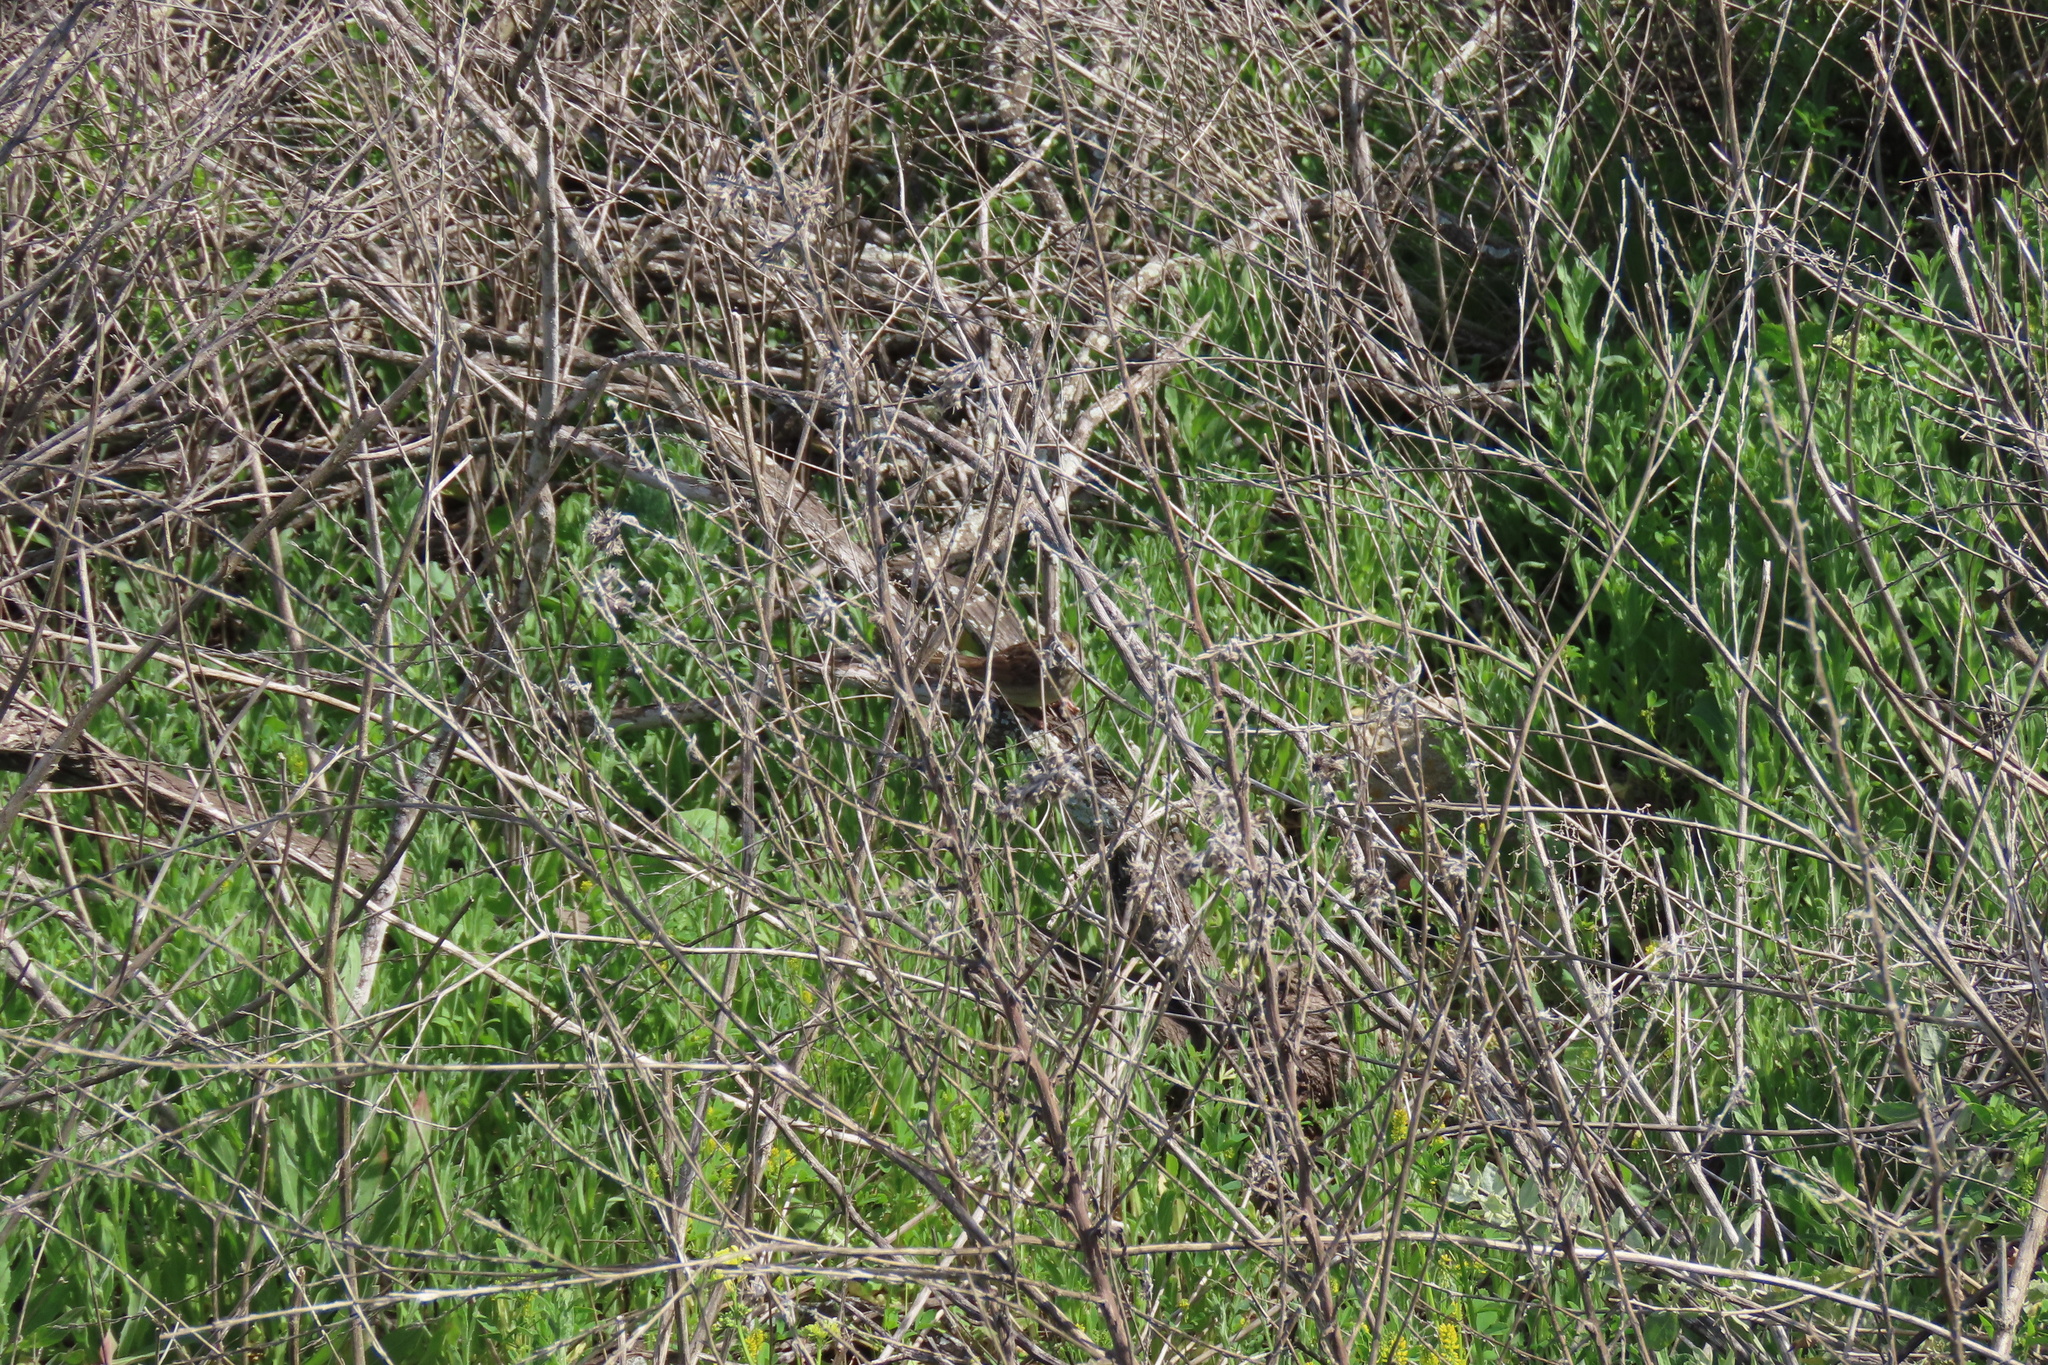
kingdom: Animalia
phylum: Chordata
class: Aves
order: Passeriformes
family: Passerellidae
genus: Zonotrichia
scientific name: Zonotrichia atricapilla
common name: Golden-crowned sparrow
